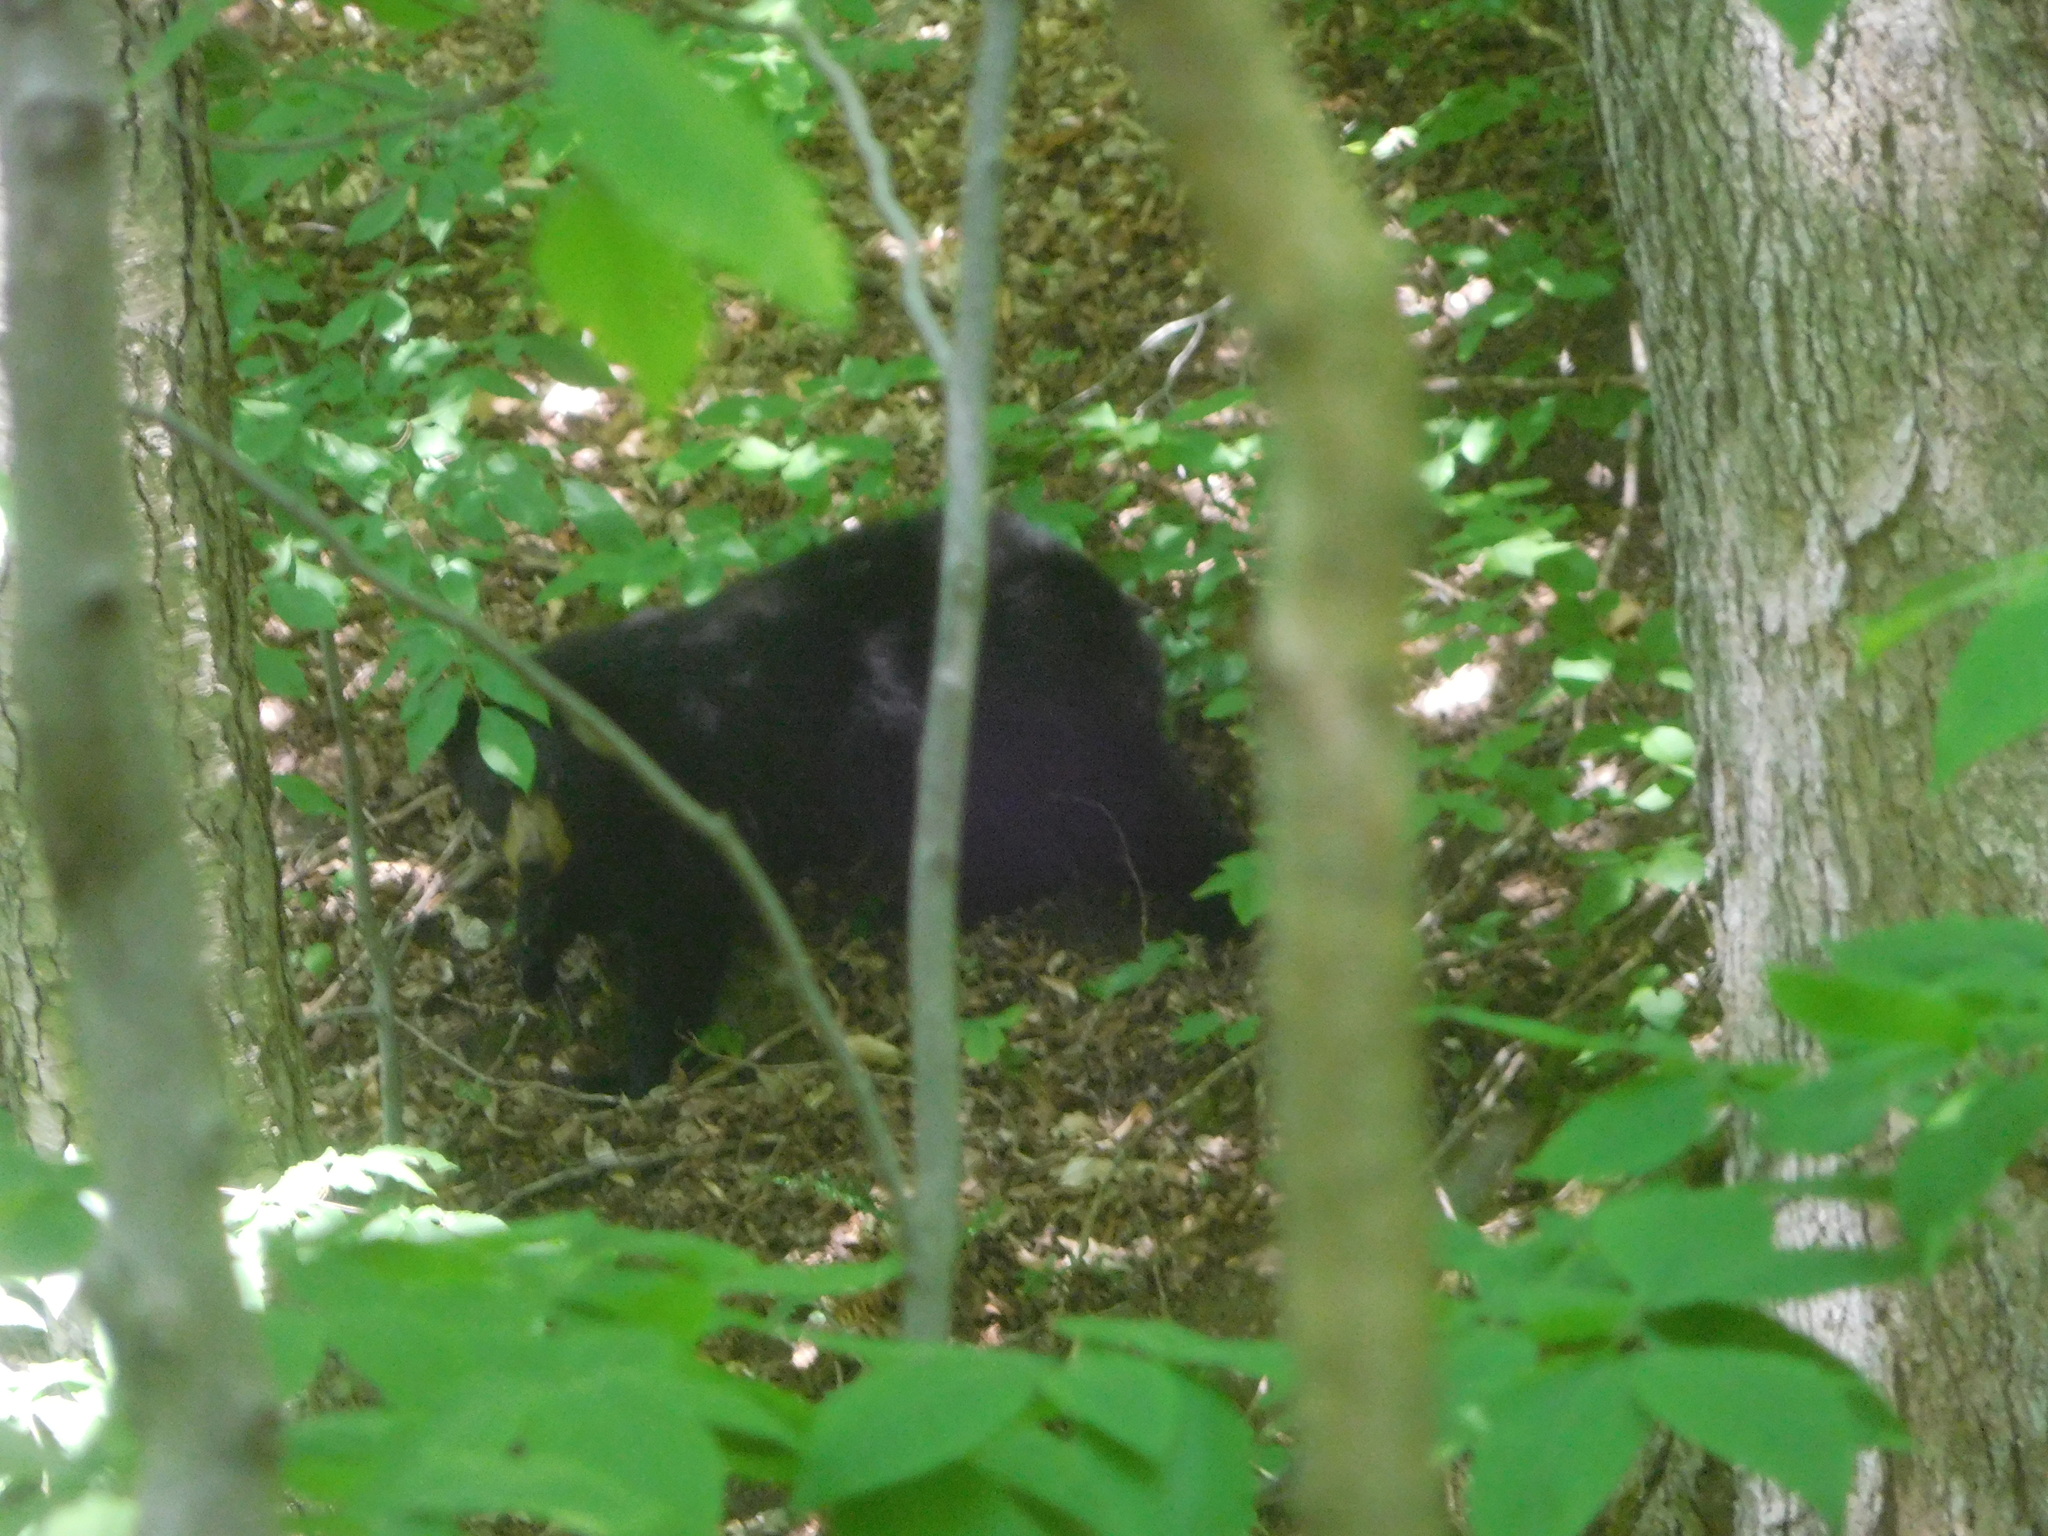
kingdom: Animalia
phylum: Chordata
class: Mammalia
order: Carnivora
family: Ursidae
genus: Ursus
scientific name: Ursus americanus
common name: American black bear
